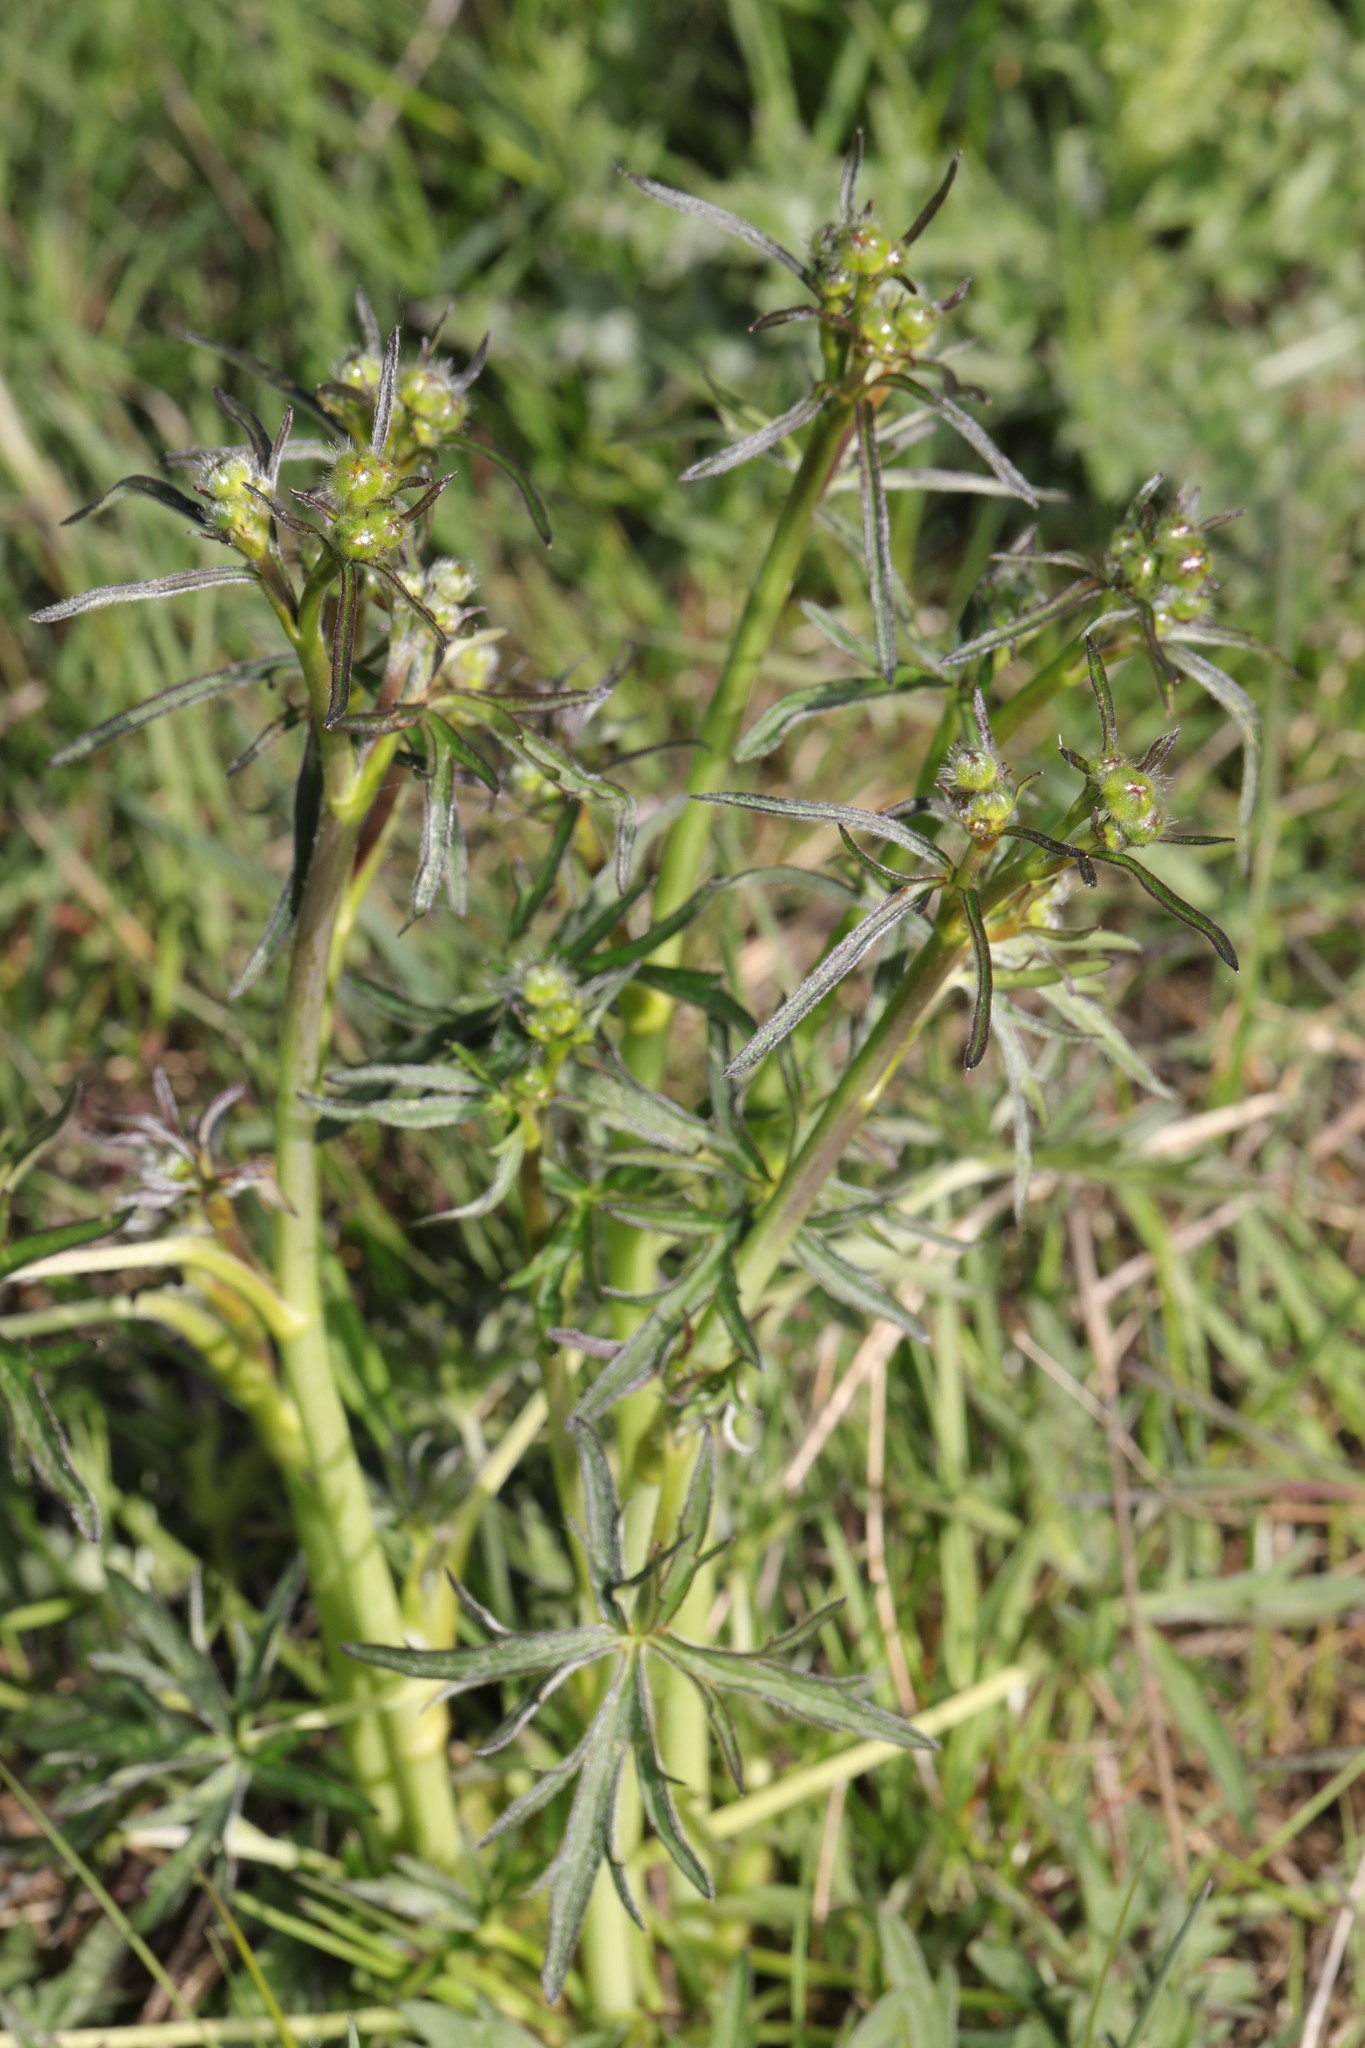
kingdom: Plantae
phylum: Tracheophyta
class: Magnoliopsida
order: Ranunculales
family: Ranunculaceae
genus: Ranunculus
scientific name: Ranunculus acris
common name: Meadow buttercup
